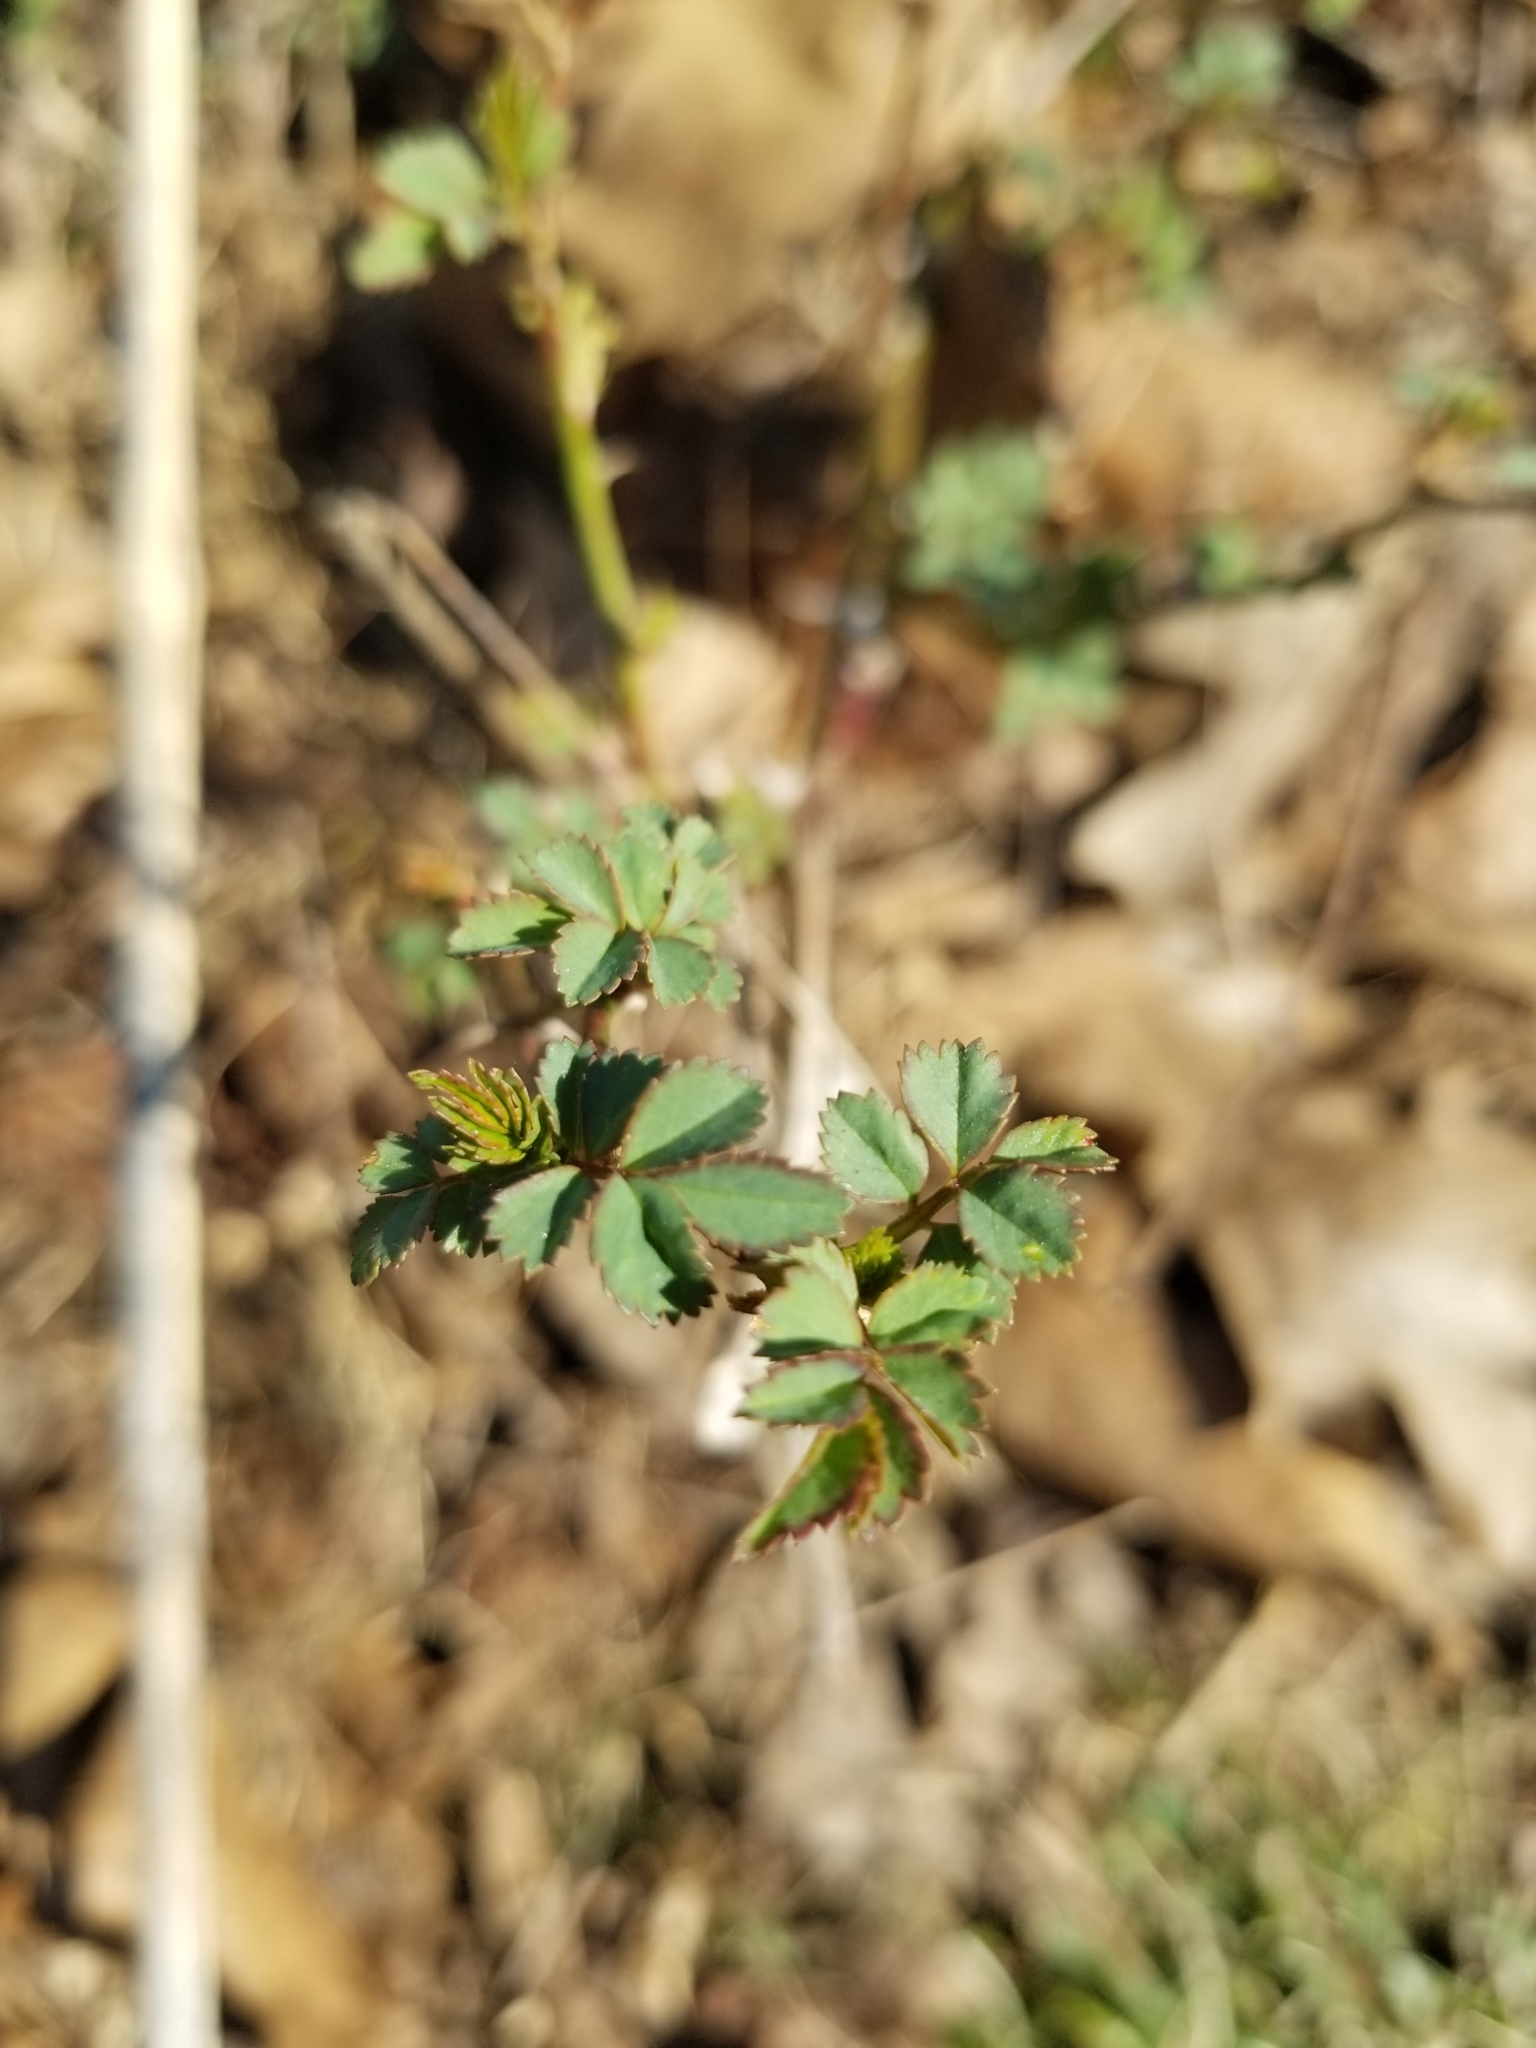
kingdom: Plantae
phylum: Tracheophyta
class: Magnoliopsida
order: Rosales
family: Rosaceae
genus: Rosa
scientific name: Rosa multiflora
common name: Multiflora rose
